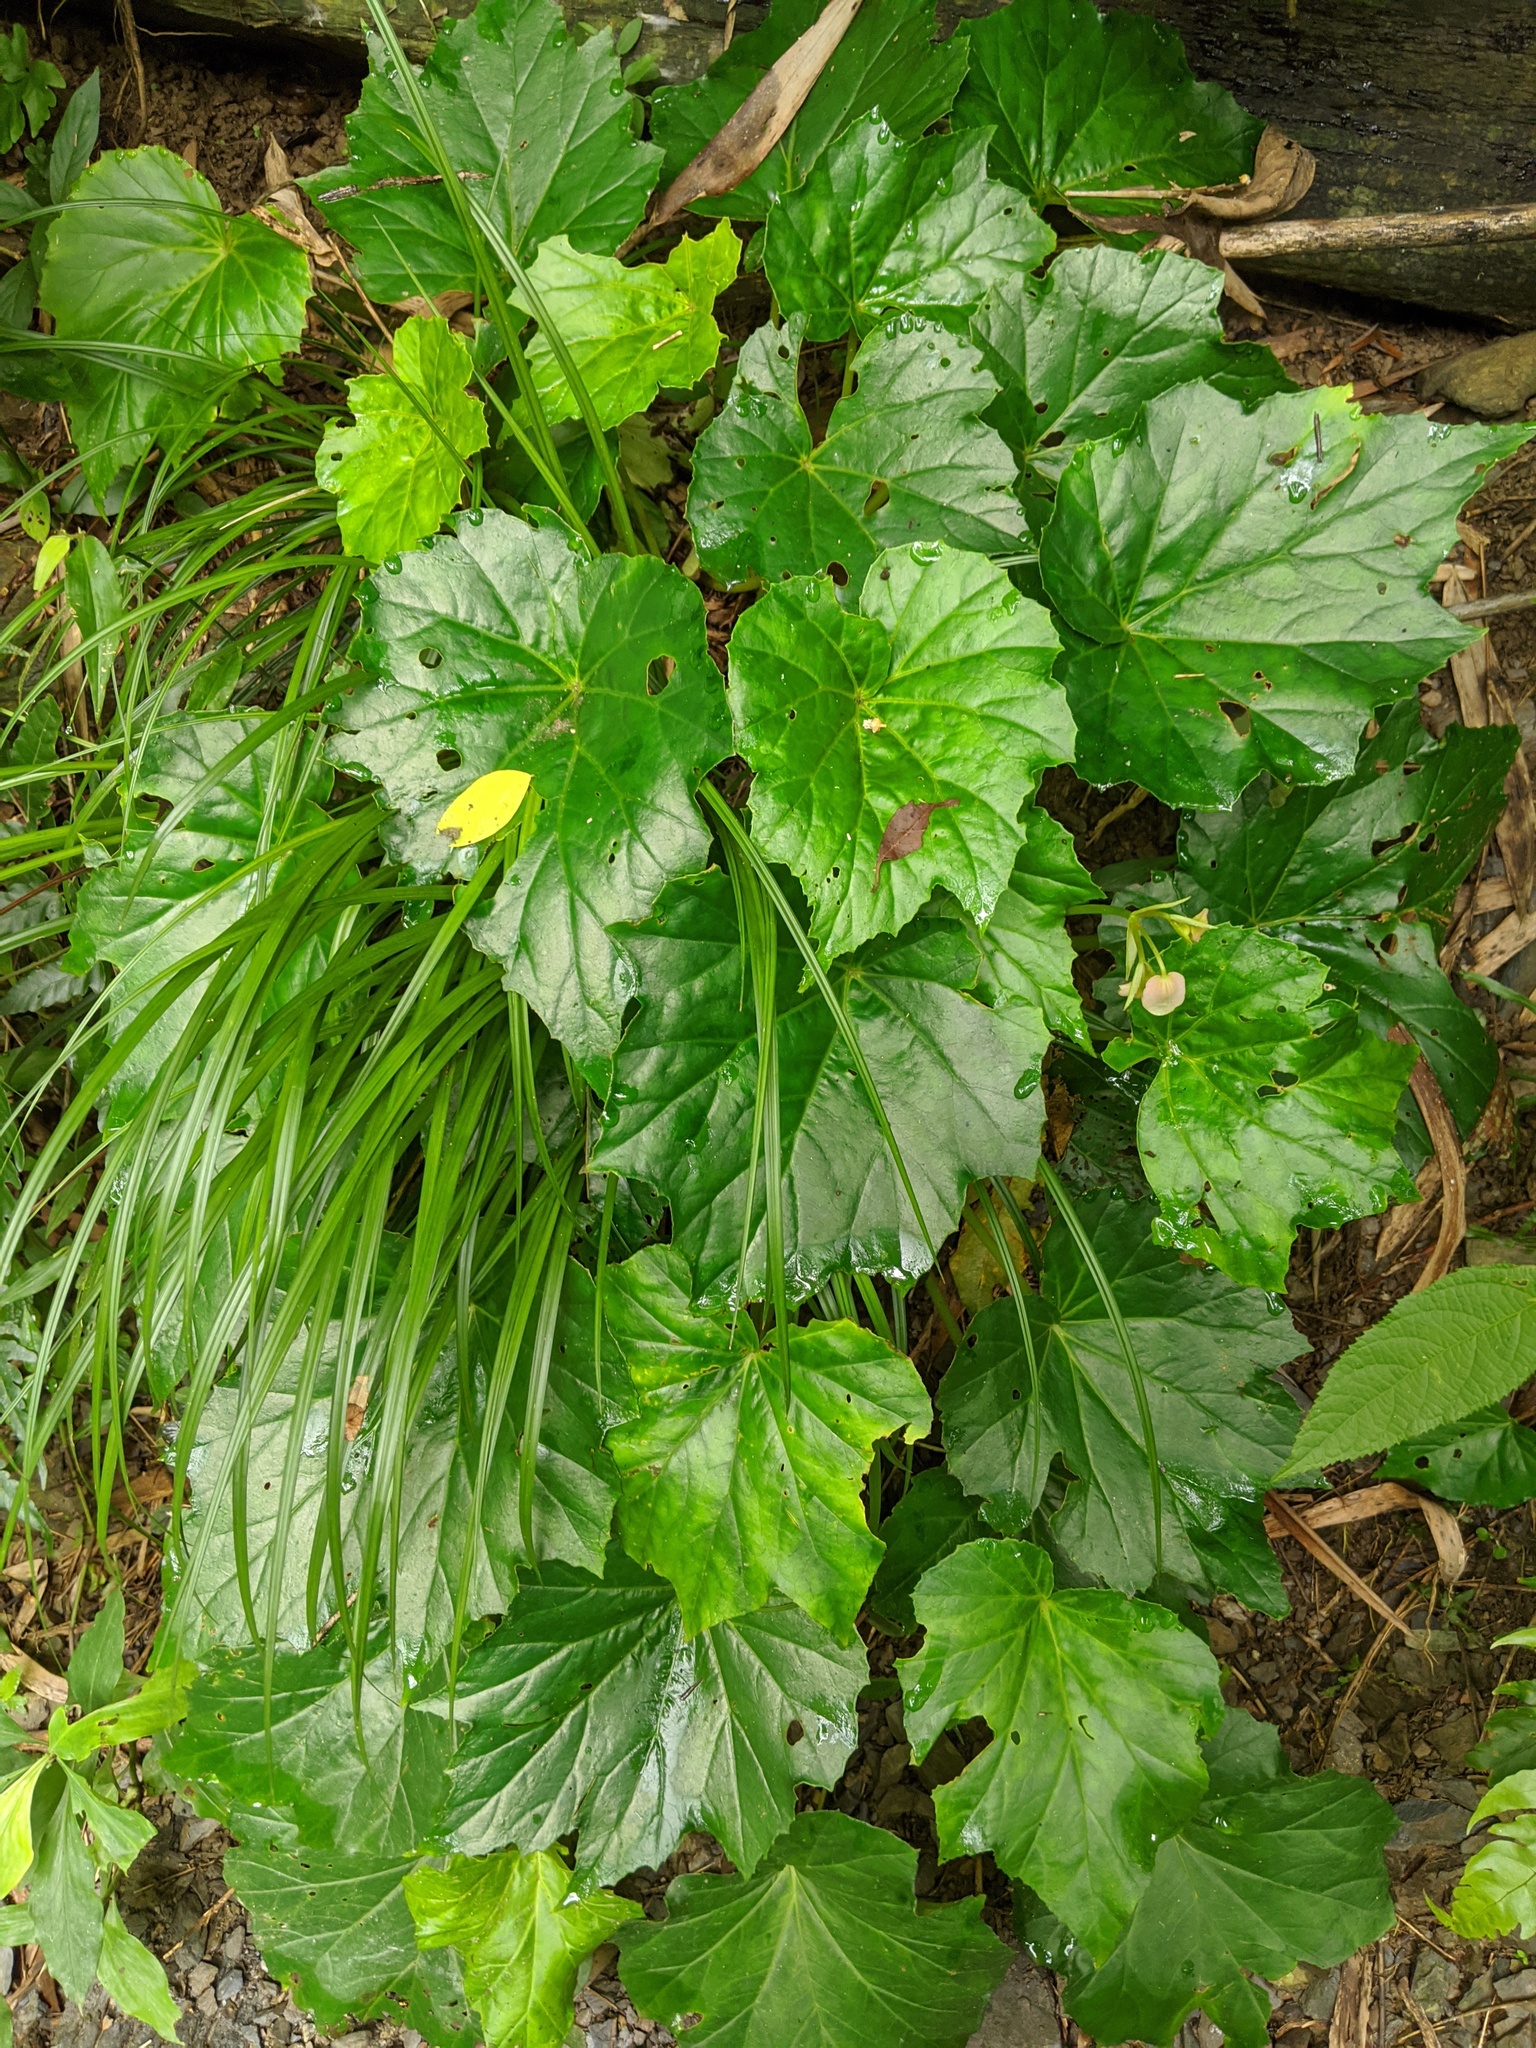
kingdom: Plantae
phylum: Tracheophyta
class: Magnoliopsida
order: Cucurbitales
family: Begoniaceae
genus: Begonia
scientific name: Begonia austrotaiwanensis
